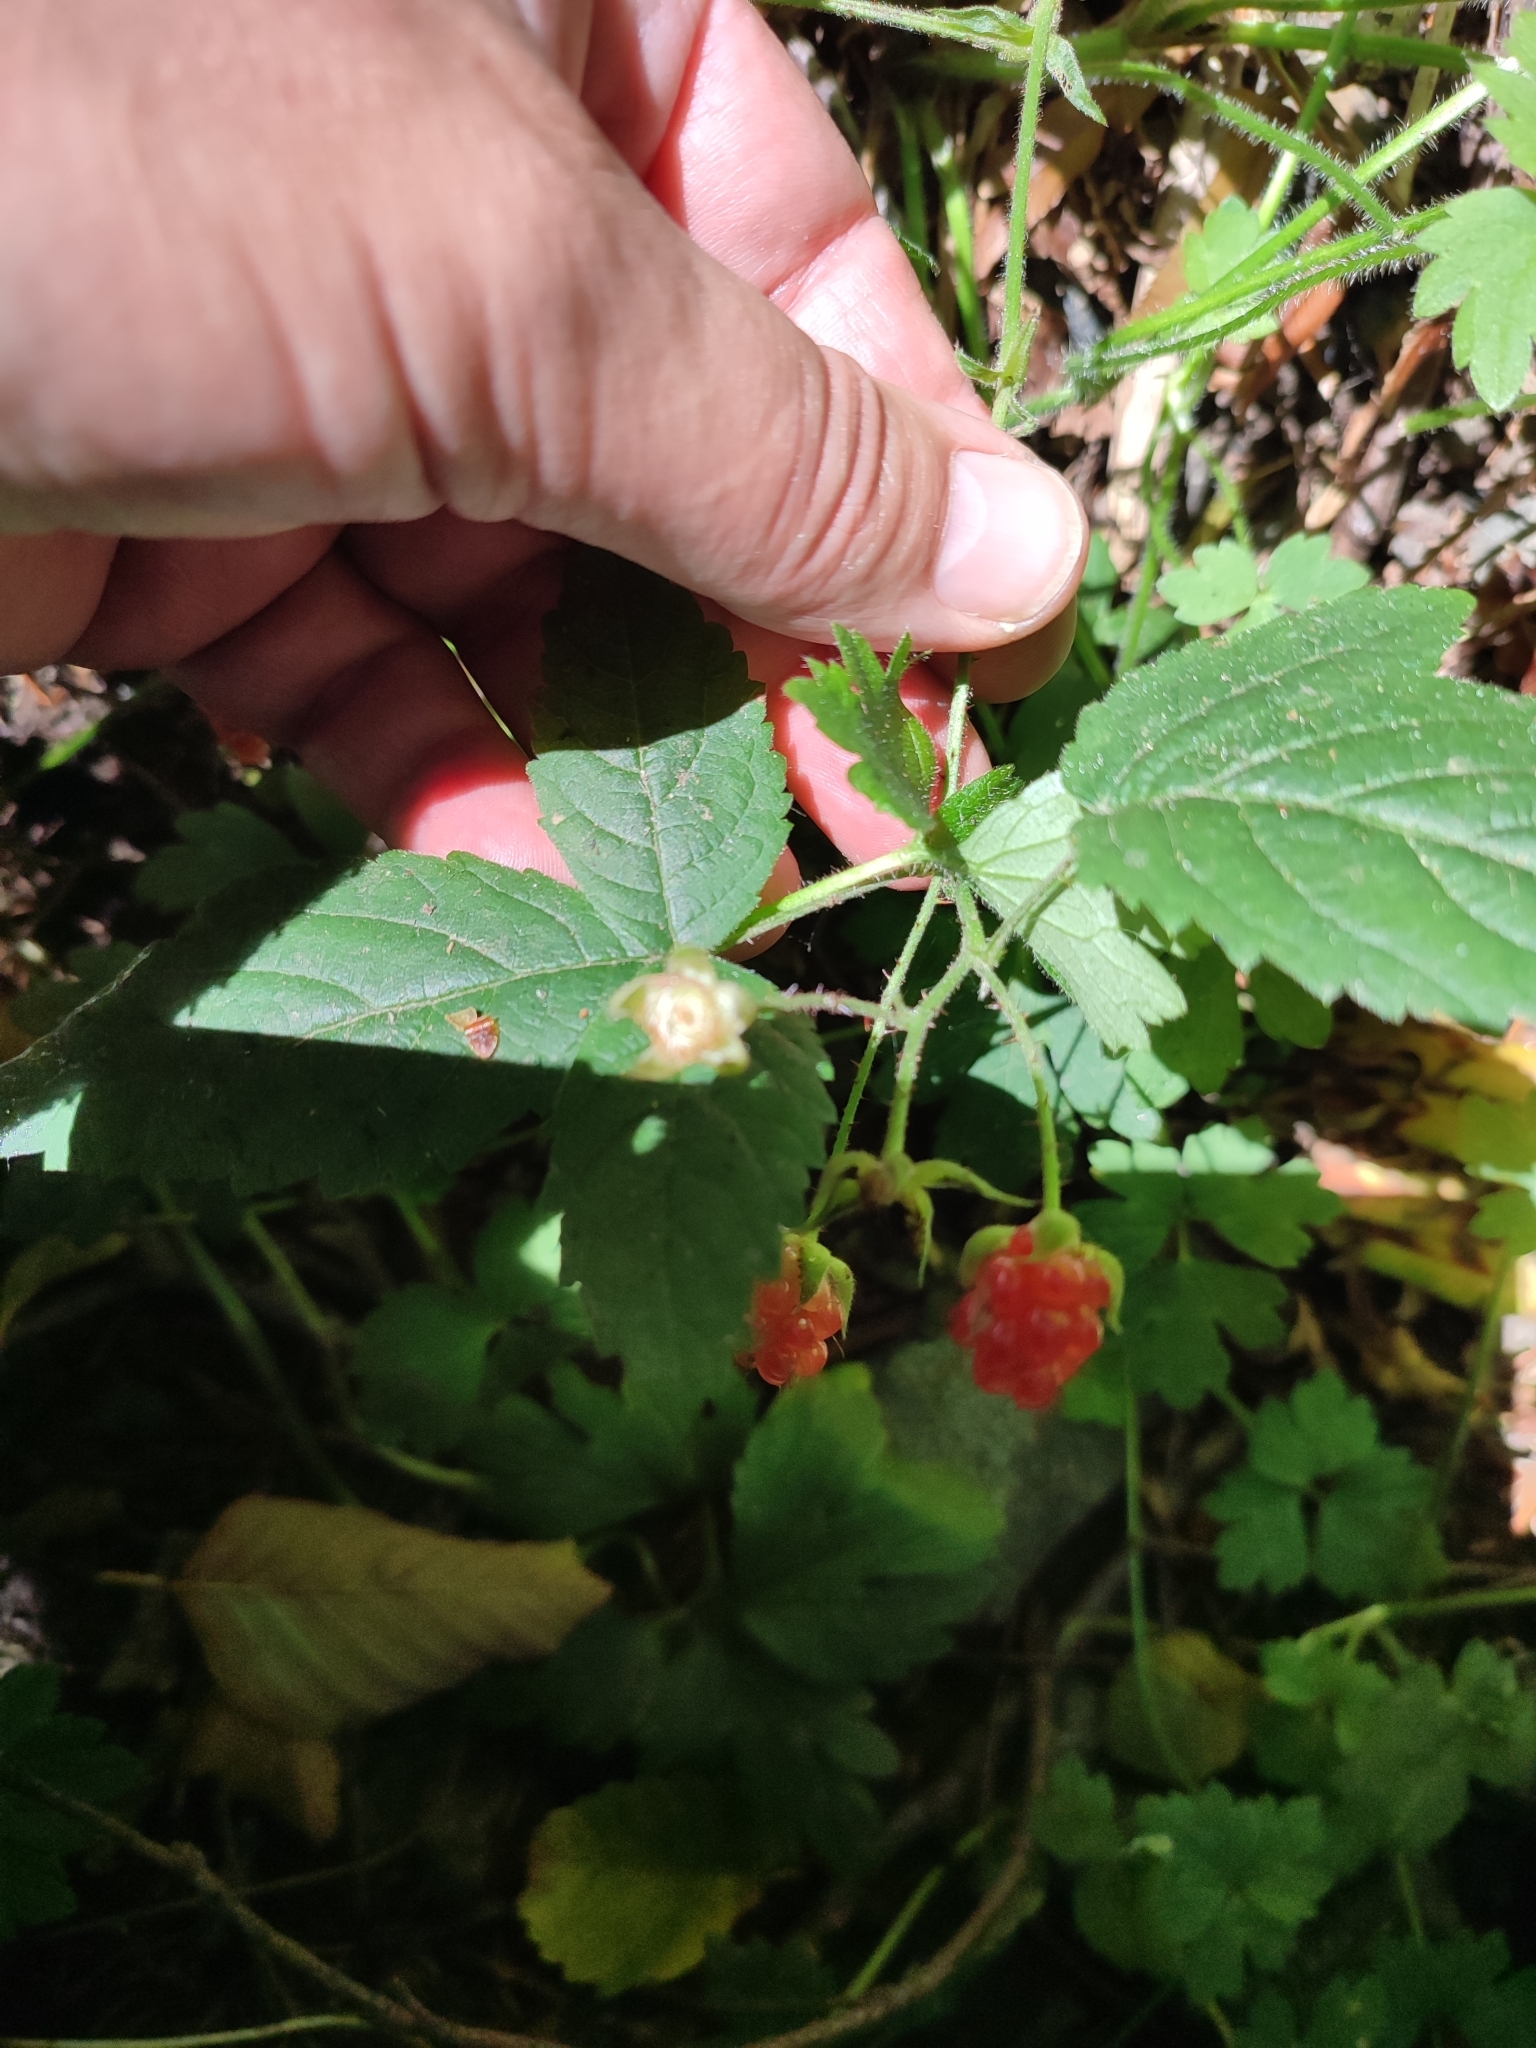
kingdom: Plantae
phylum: Tracheophyta
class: Magnoliopsida
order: Rosales
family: Rosaceae
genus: Rubus
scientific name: Rubus ursinus
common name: Pacific blackberry
